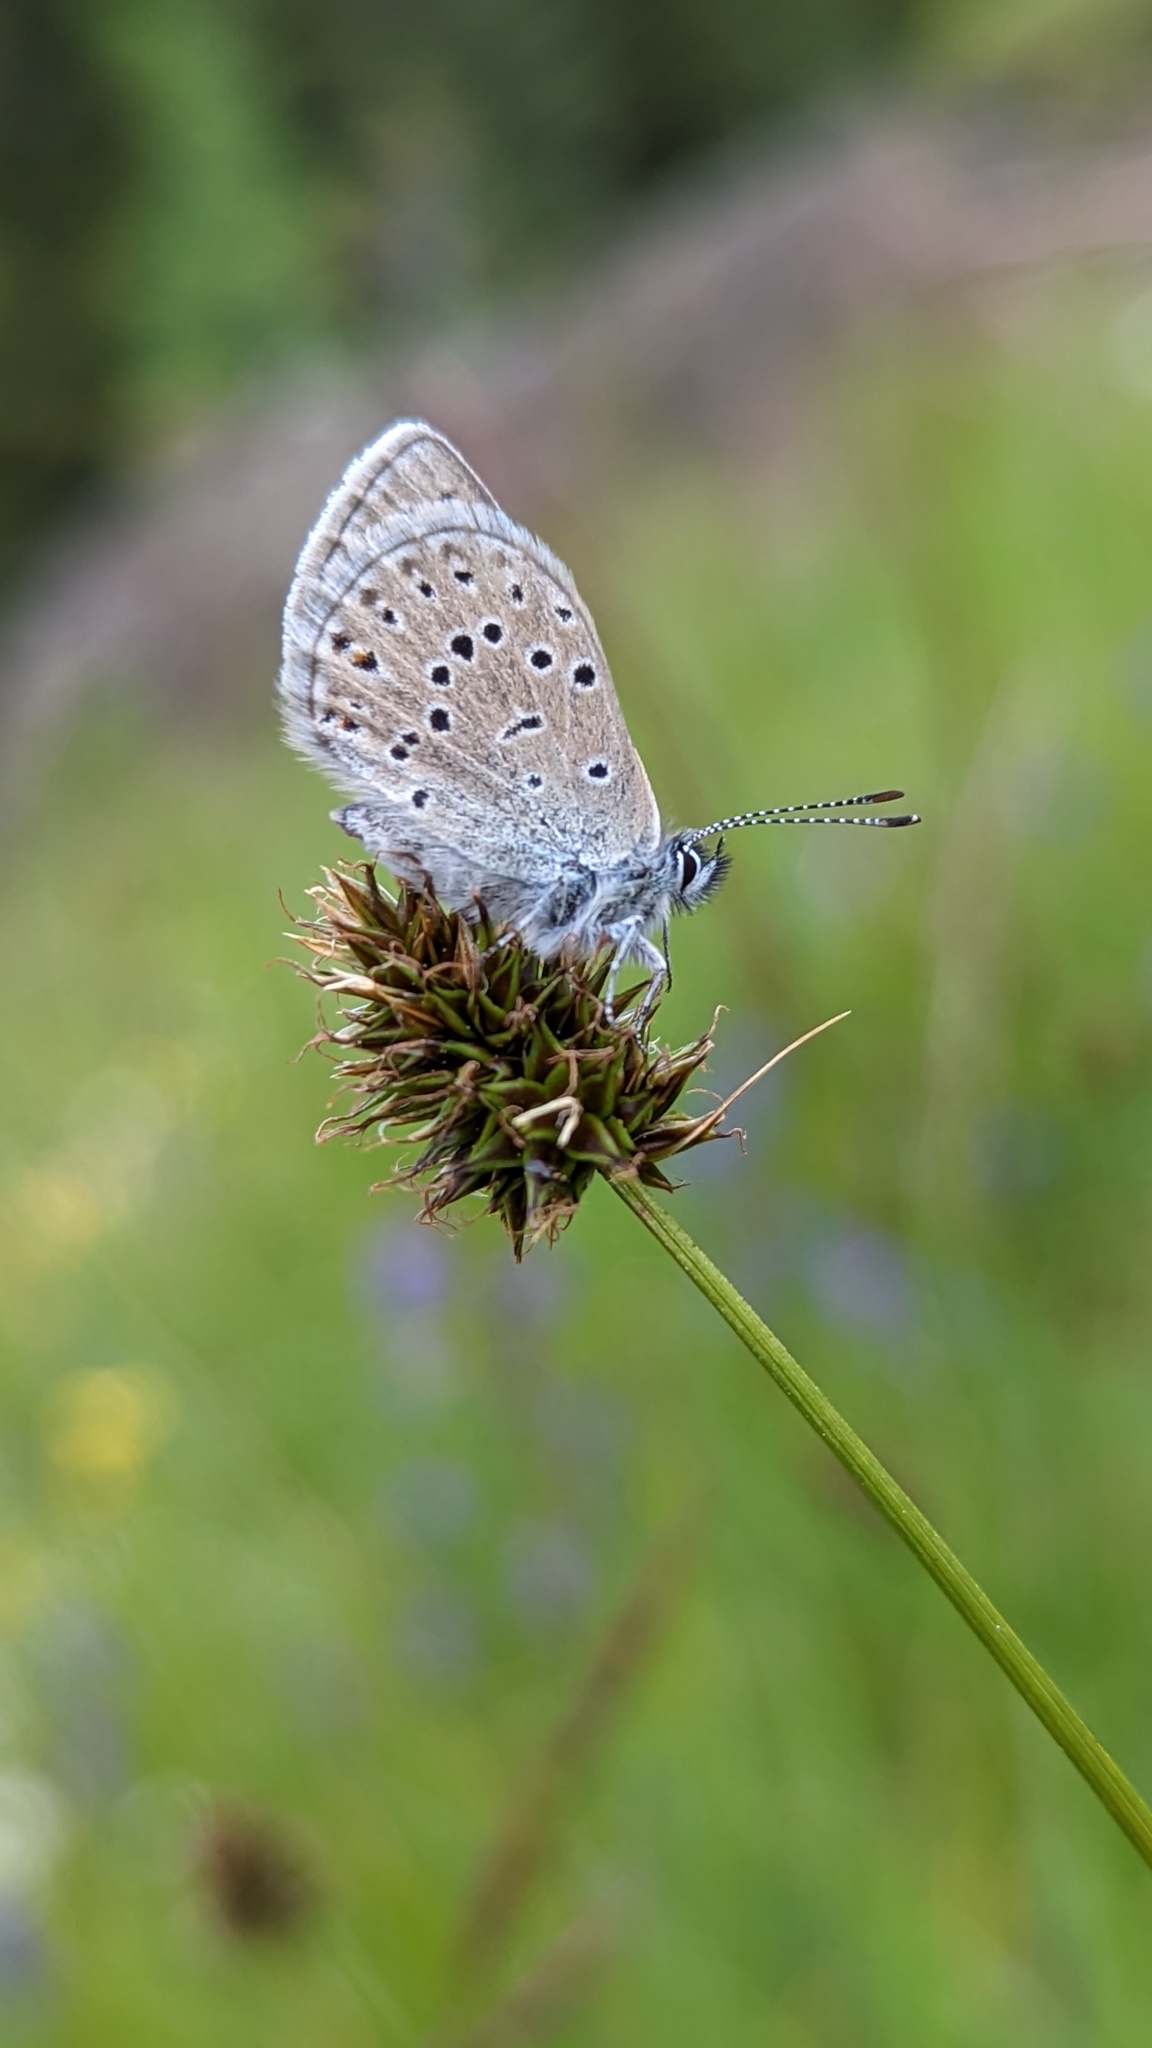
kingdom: Animalia
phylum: Arthropoda
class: Insecta
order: Lepidoptera
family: Lycaenidae
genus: Icaricia
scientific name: Icaricia saepiolus
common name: Greenish blue
